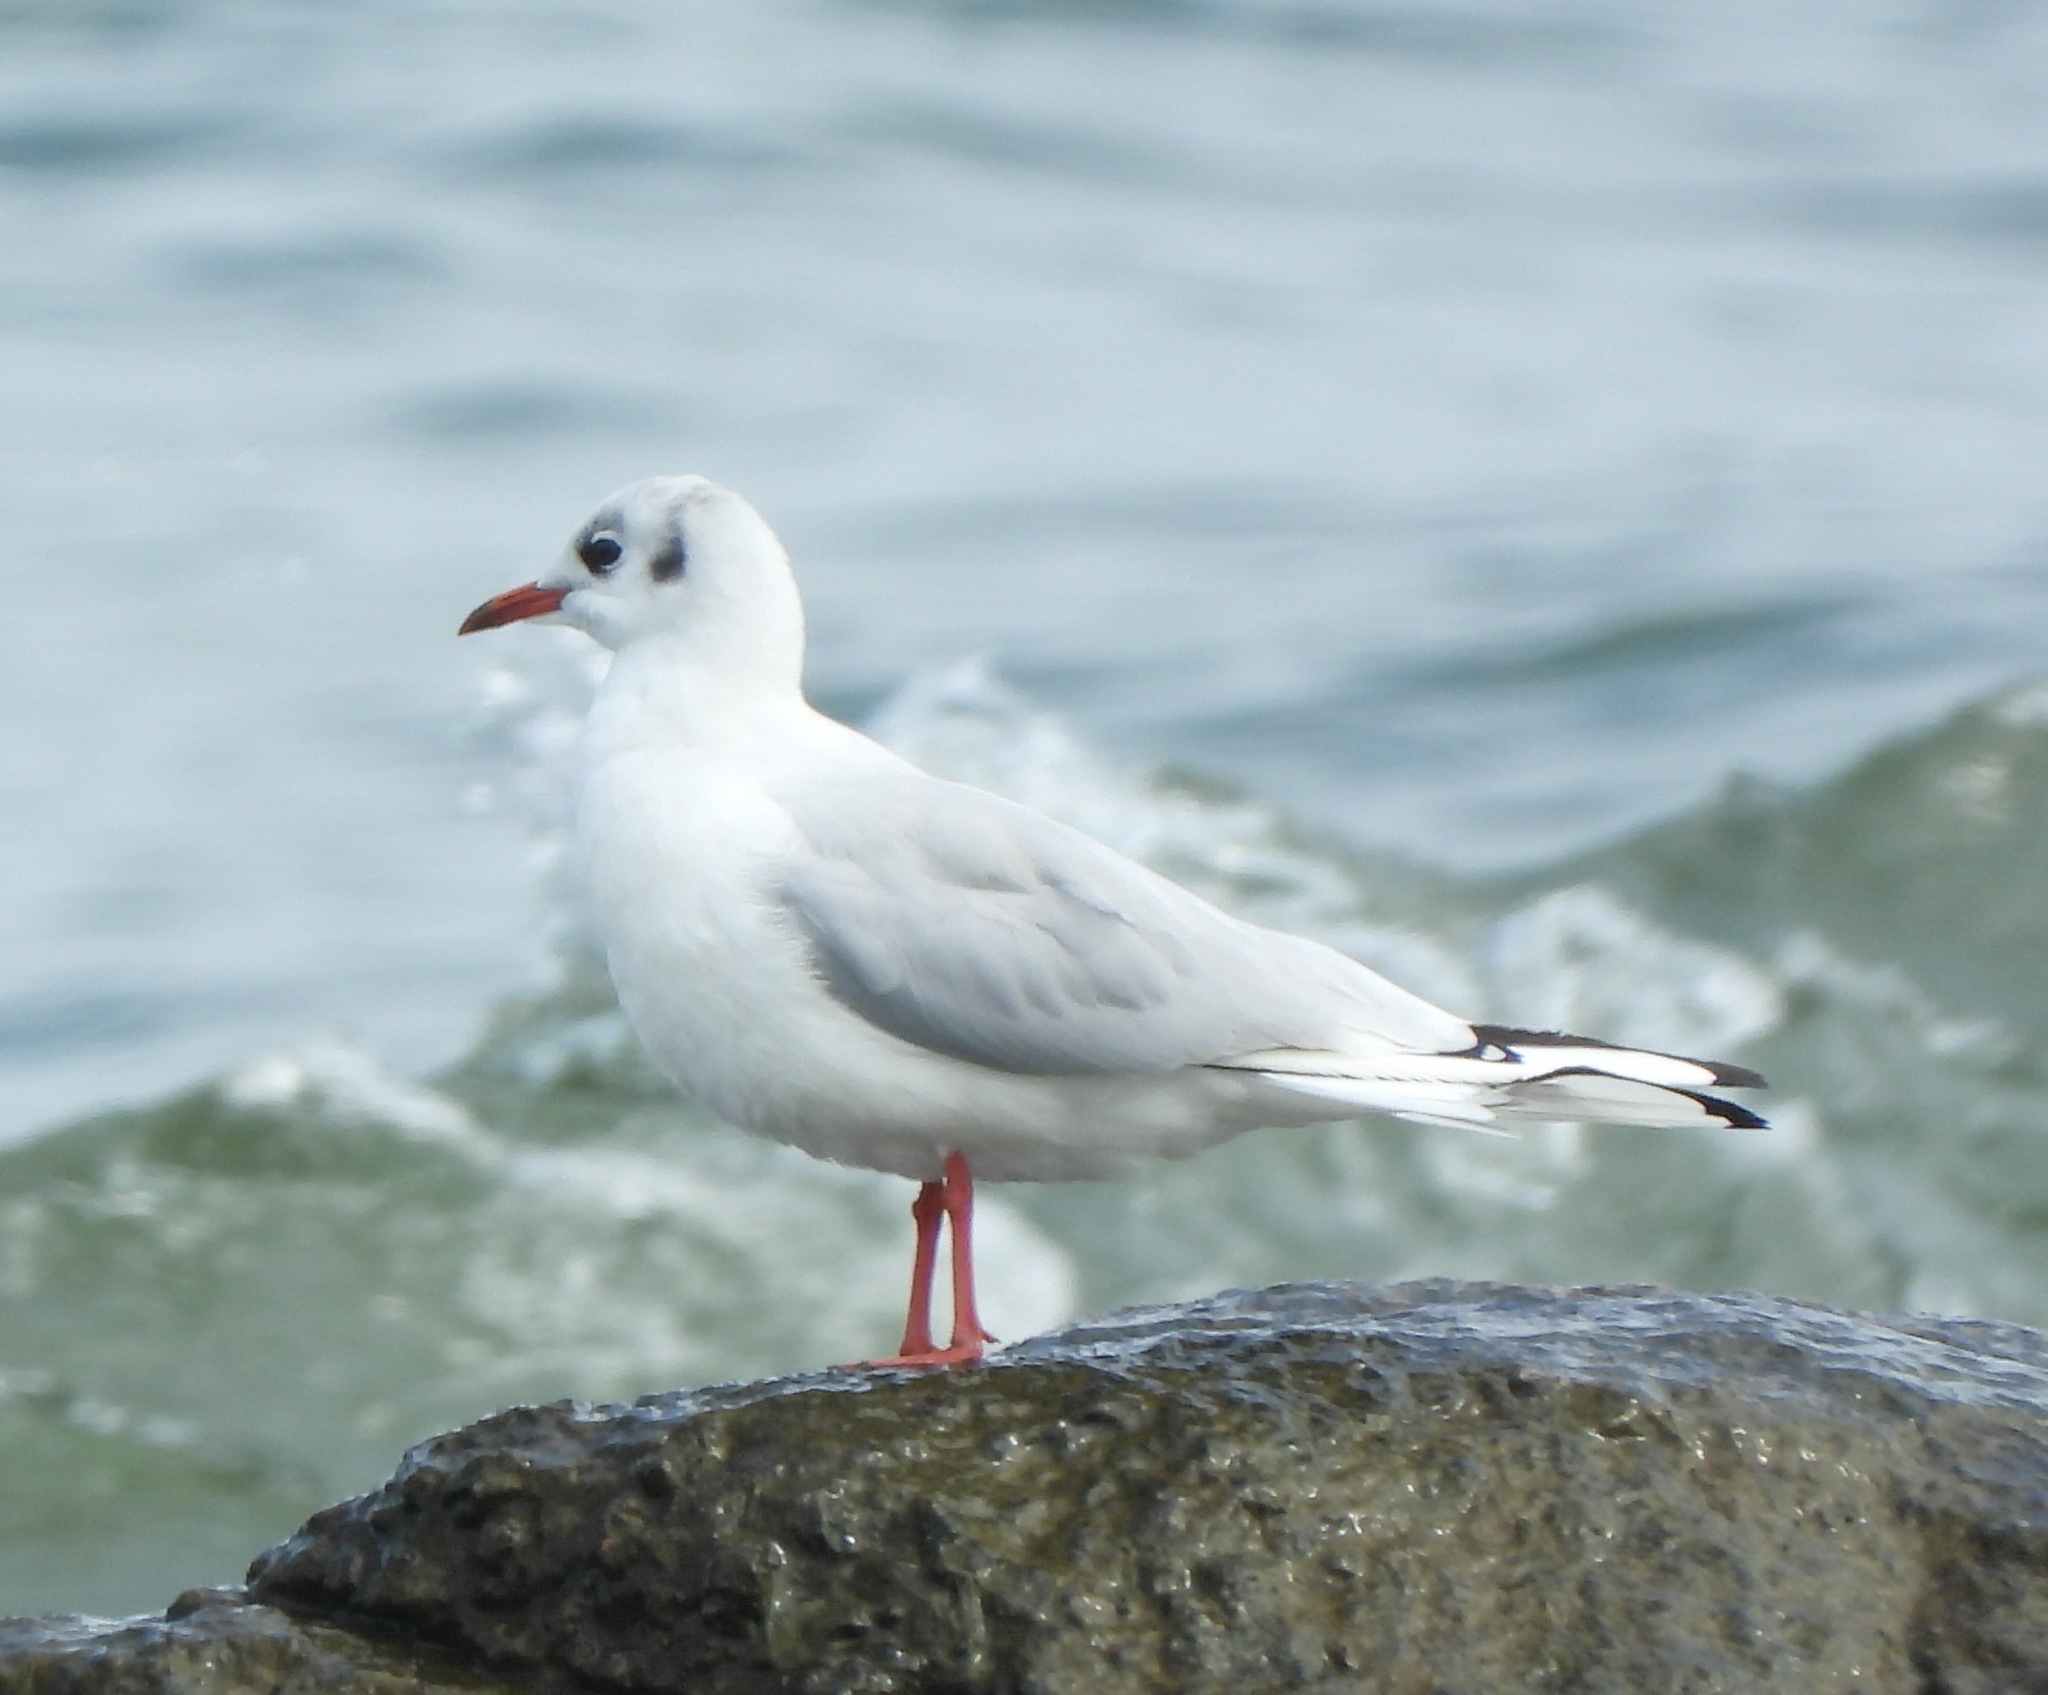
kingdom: Animalia
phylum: Chordata
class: Aves
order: Charadriiformes
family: Laridae
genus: Chroicocephalus
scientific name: Chroicocephalus ridibundus
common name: Black-headed gull
